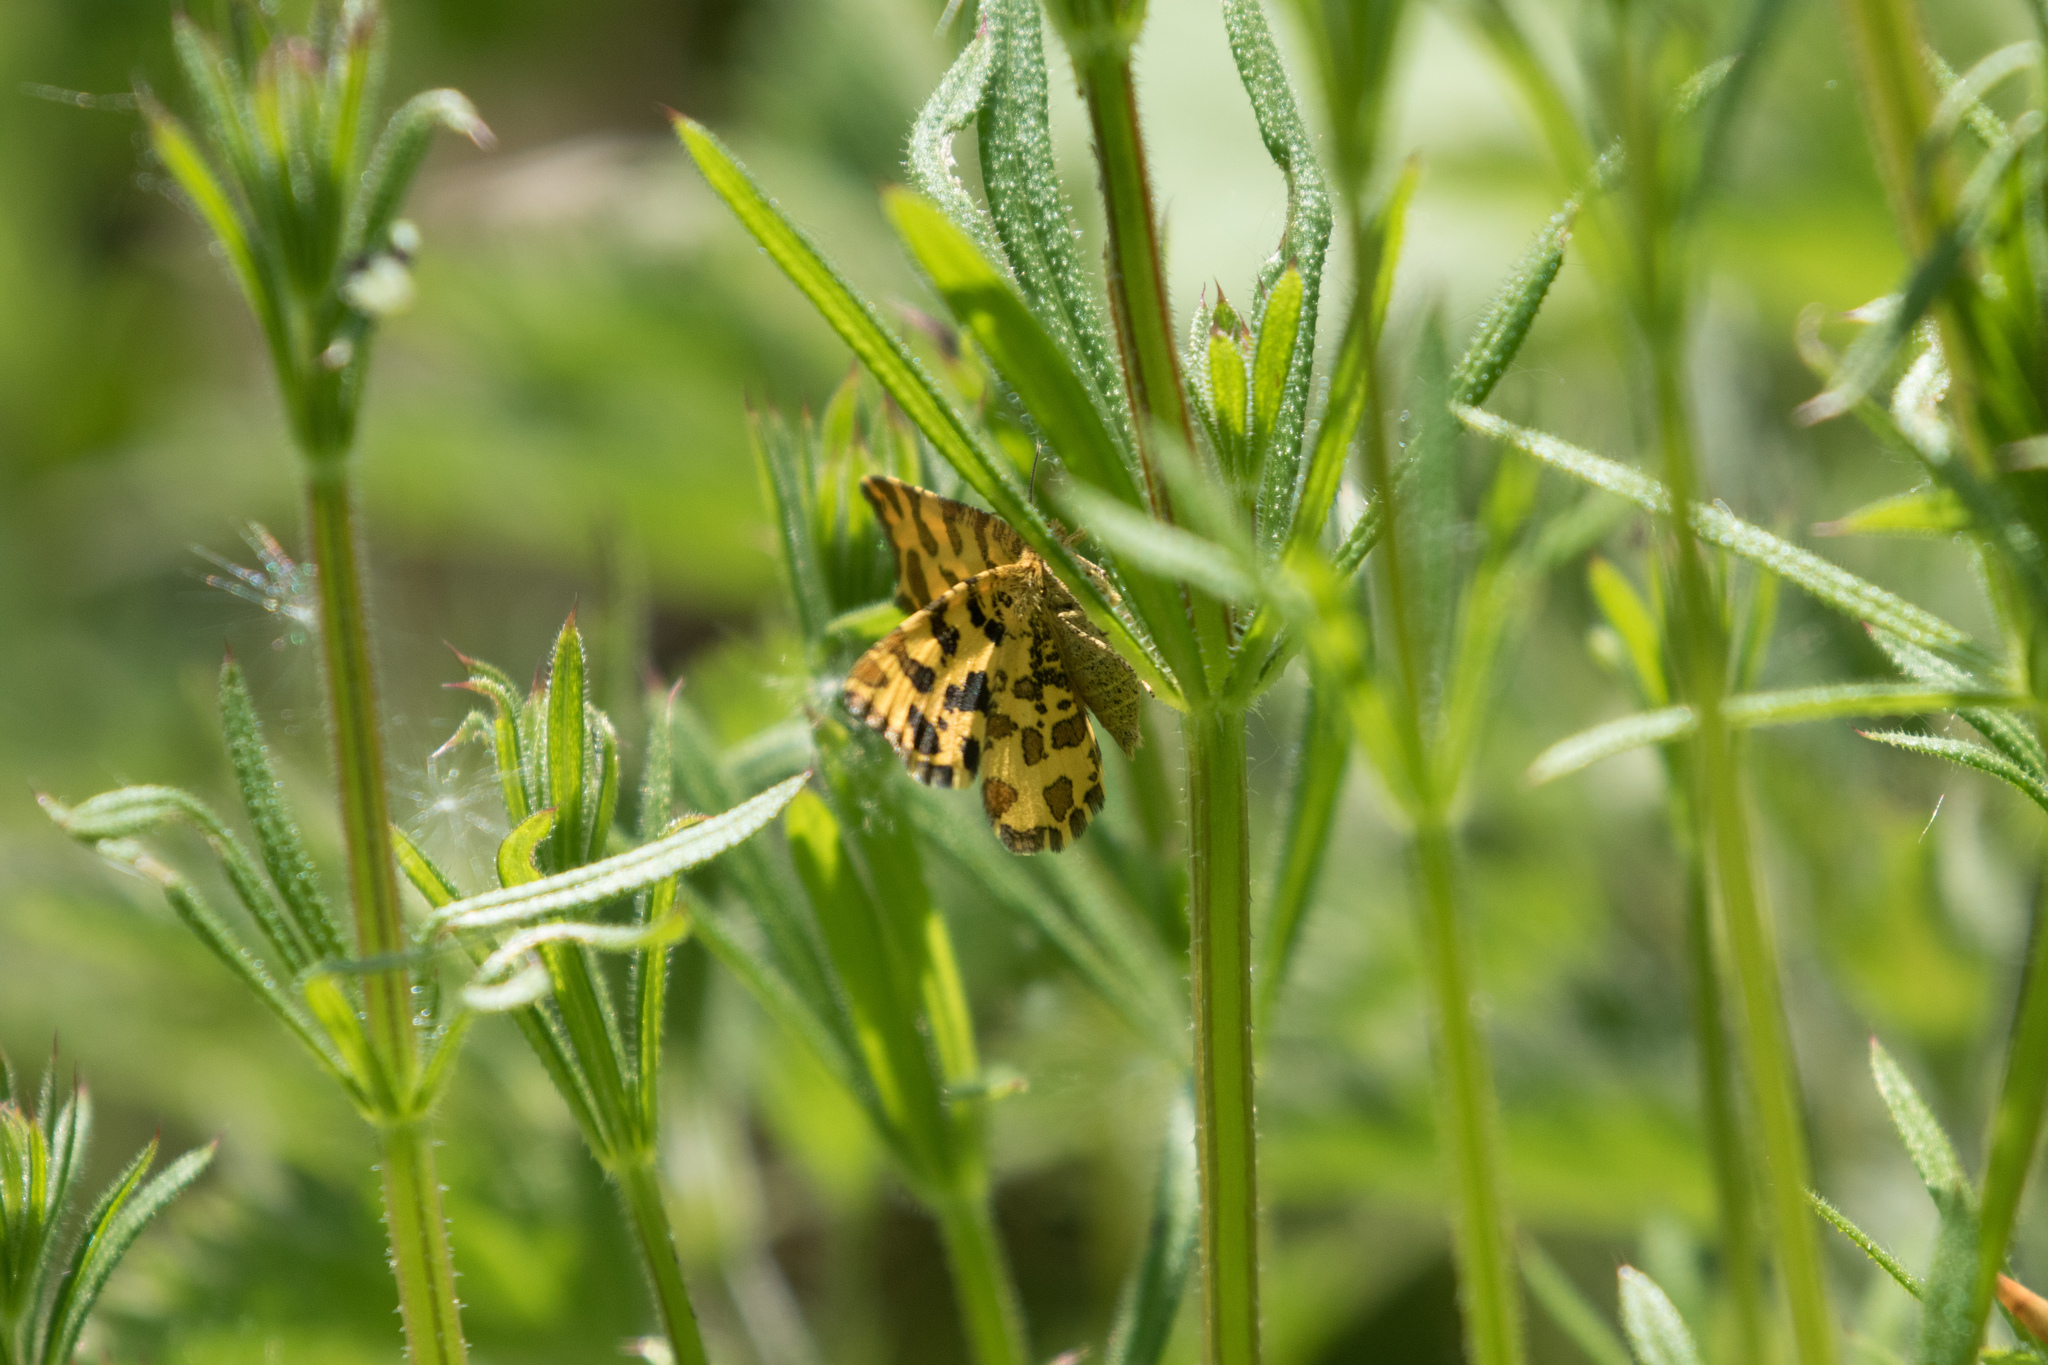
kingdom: Animalia
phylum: Arthropoda
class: Insecta
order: Lepidoptera
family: Geometridae
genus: Pseudopanthera
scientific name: Pseudopanthera macularia
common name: Speckled yellow
